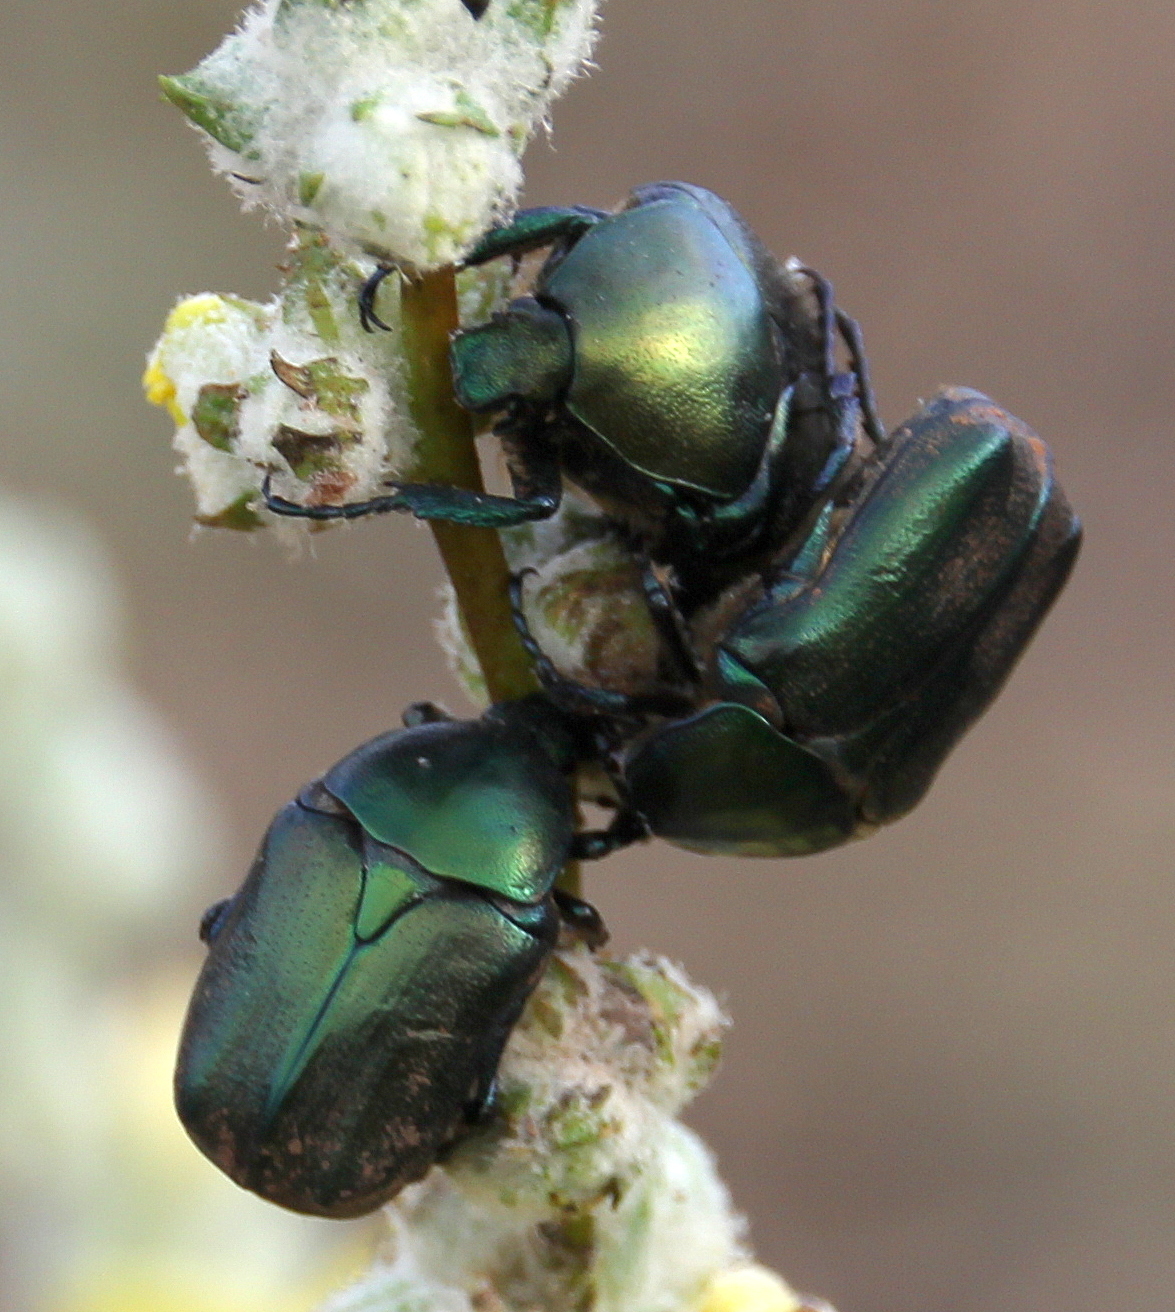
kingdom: Animalia
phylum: Arthropoda
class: Insecta
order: Coleoptera
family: Scarabaeidae
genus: Protaetia
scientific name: Protaetia angustata
